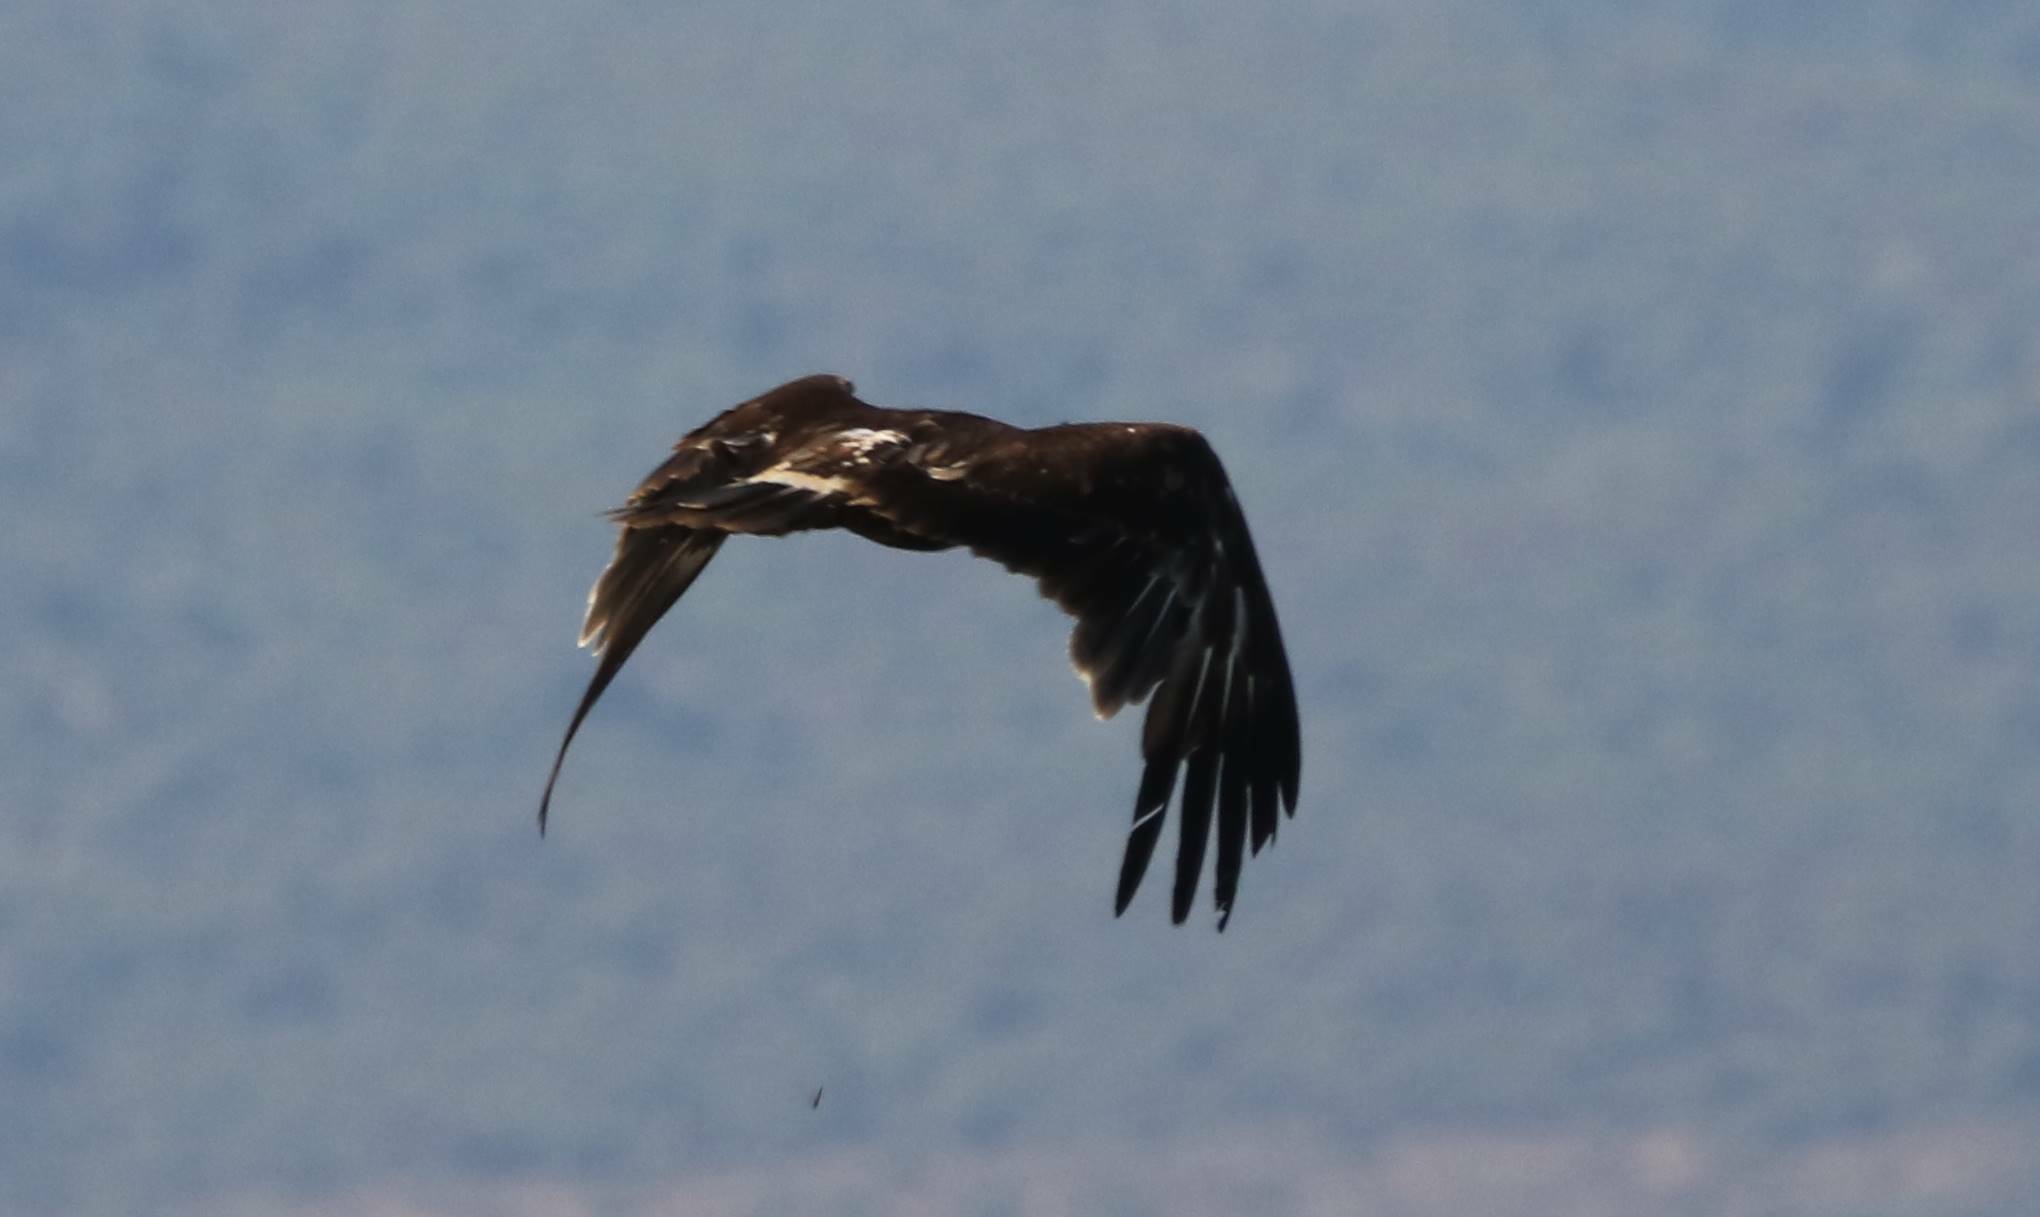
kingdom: Animalia
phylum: Chordata
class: Aves
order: Accipitriformes
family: Accipitridae
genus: Aquila
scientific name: Aquila clanga
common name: Greater spotted eagle
